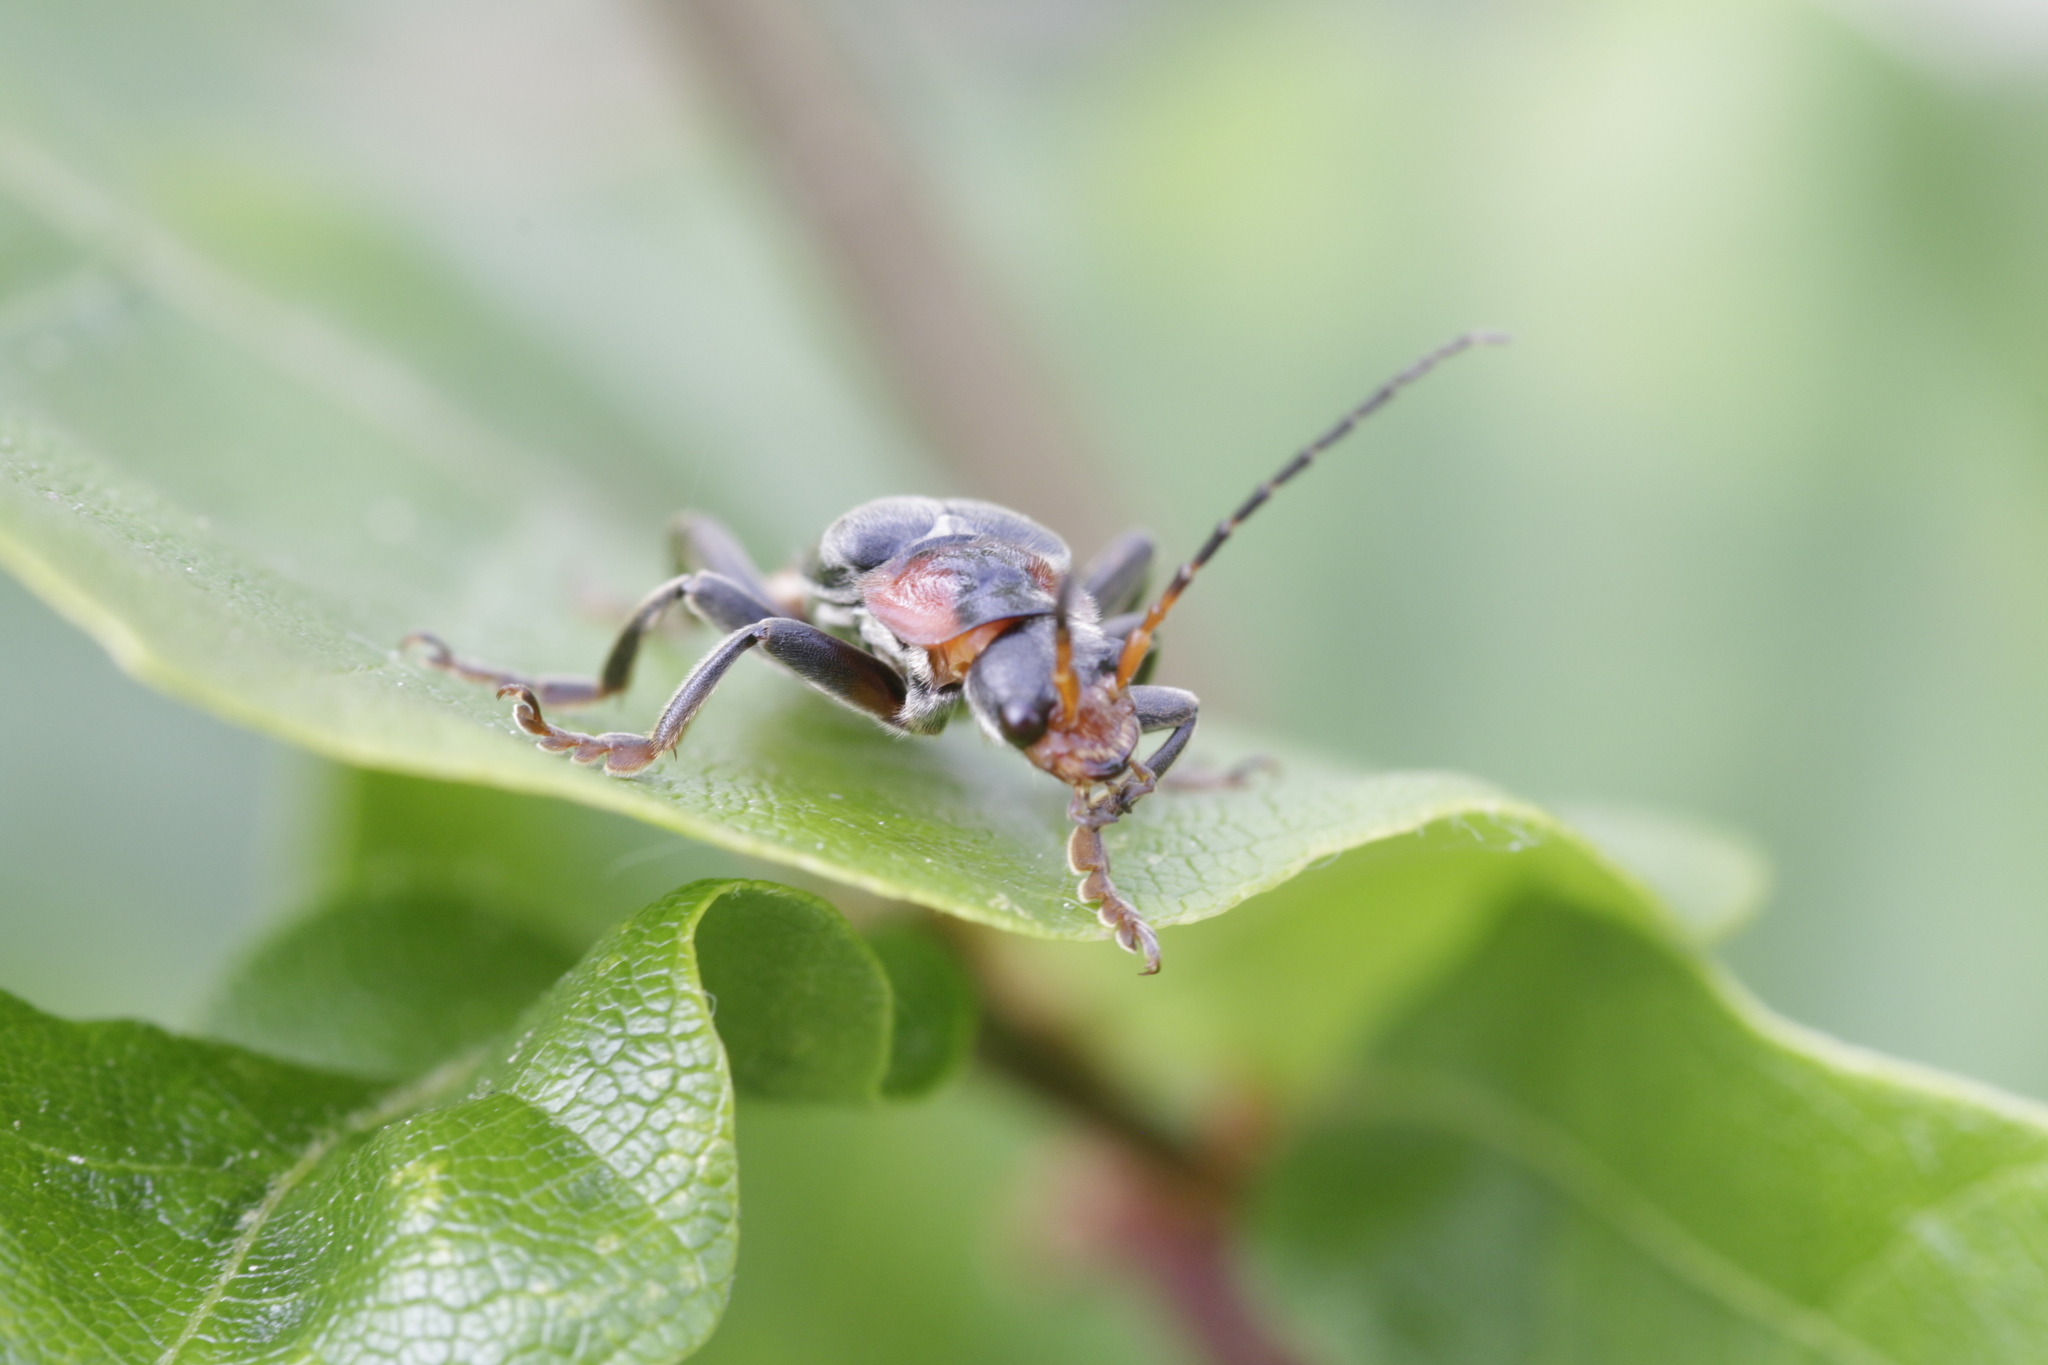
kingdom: Animalia
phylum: Arthropoda
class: Insecta
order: Coleoptera
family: Cantharidae
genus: Cantharis
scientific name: Cantharis fusca
